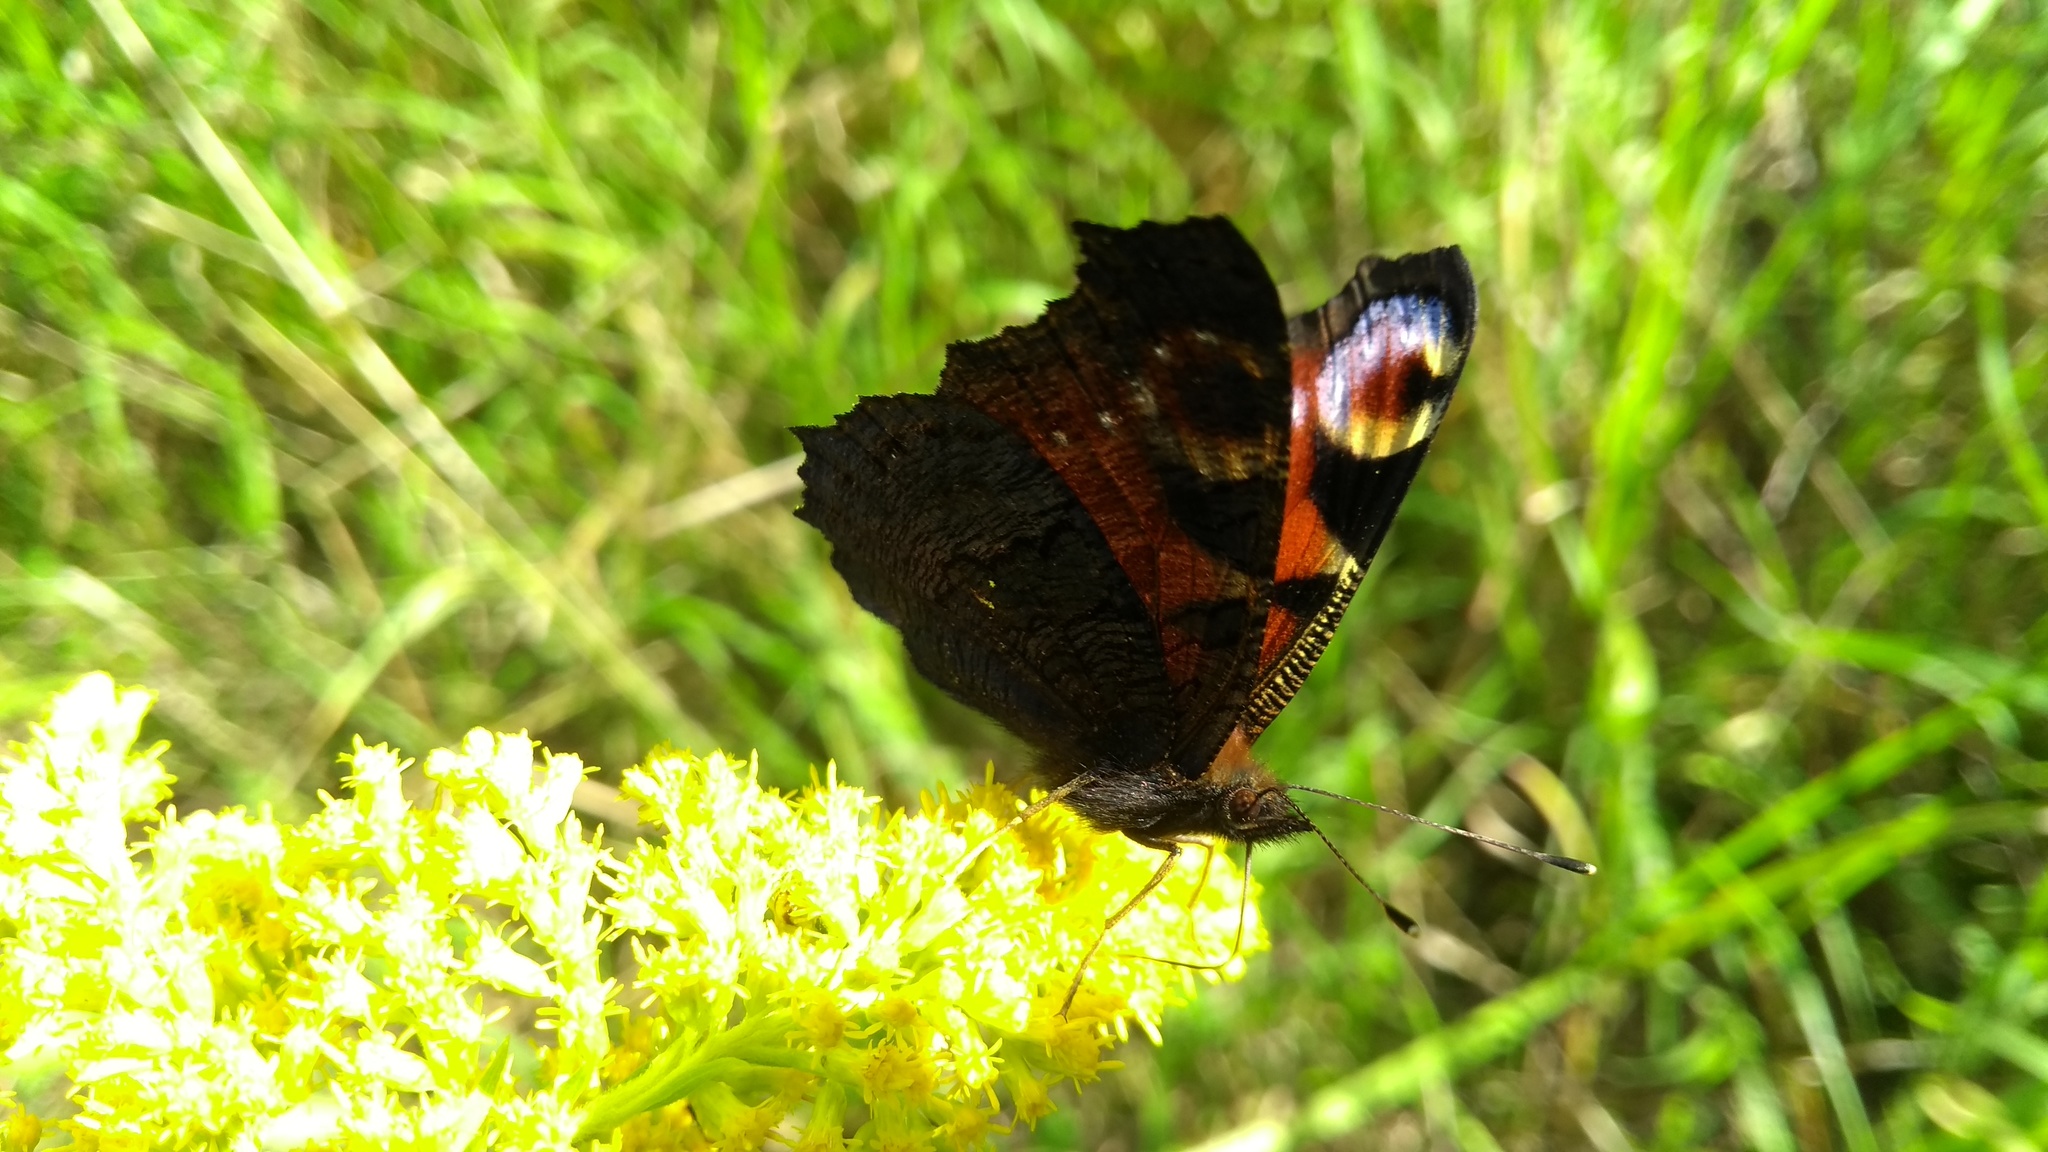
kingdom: Animalia
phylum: Arthropoda
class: Insecta
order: Lepidoptera
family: Nymphalidae
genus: Aglais
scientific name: Aglais io
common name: Peacock
